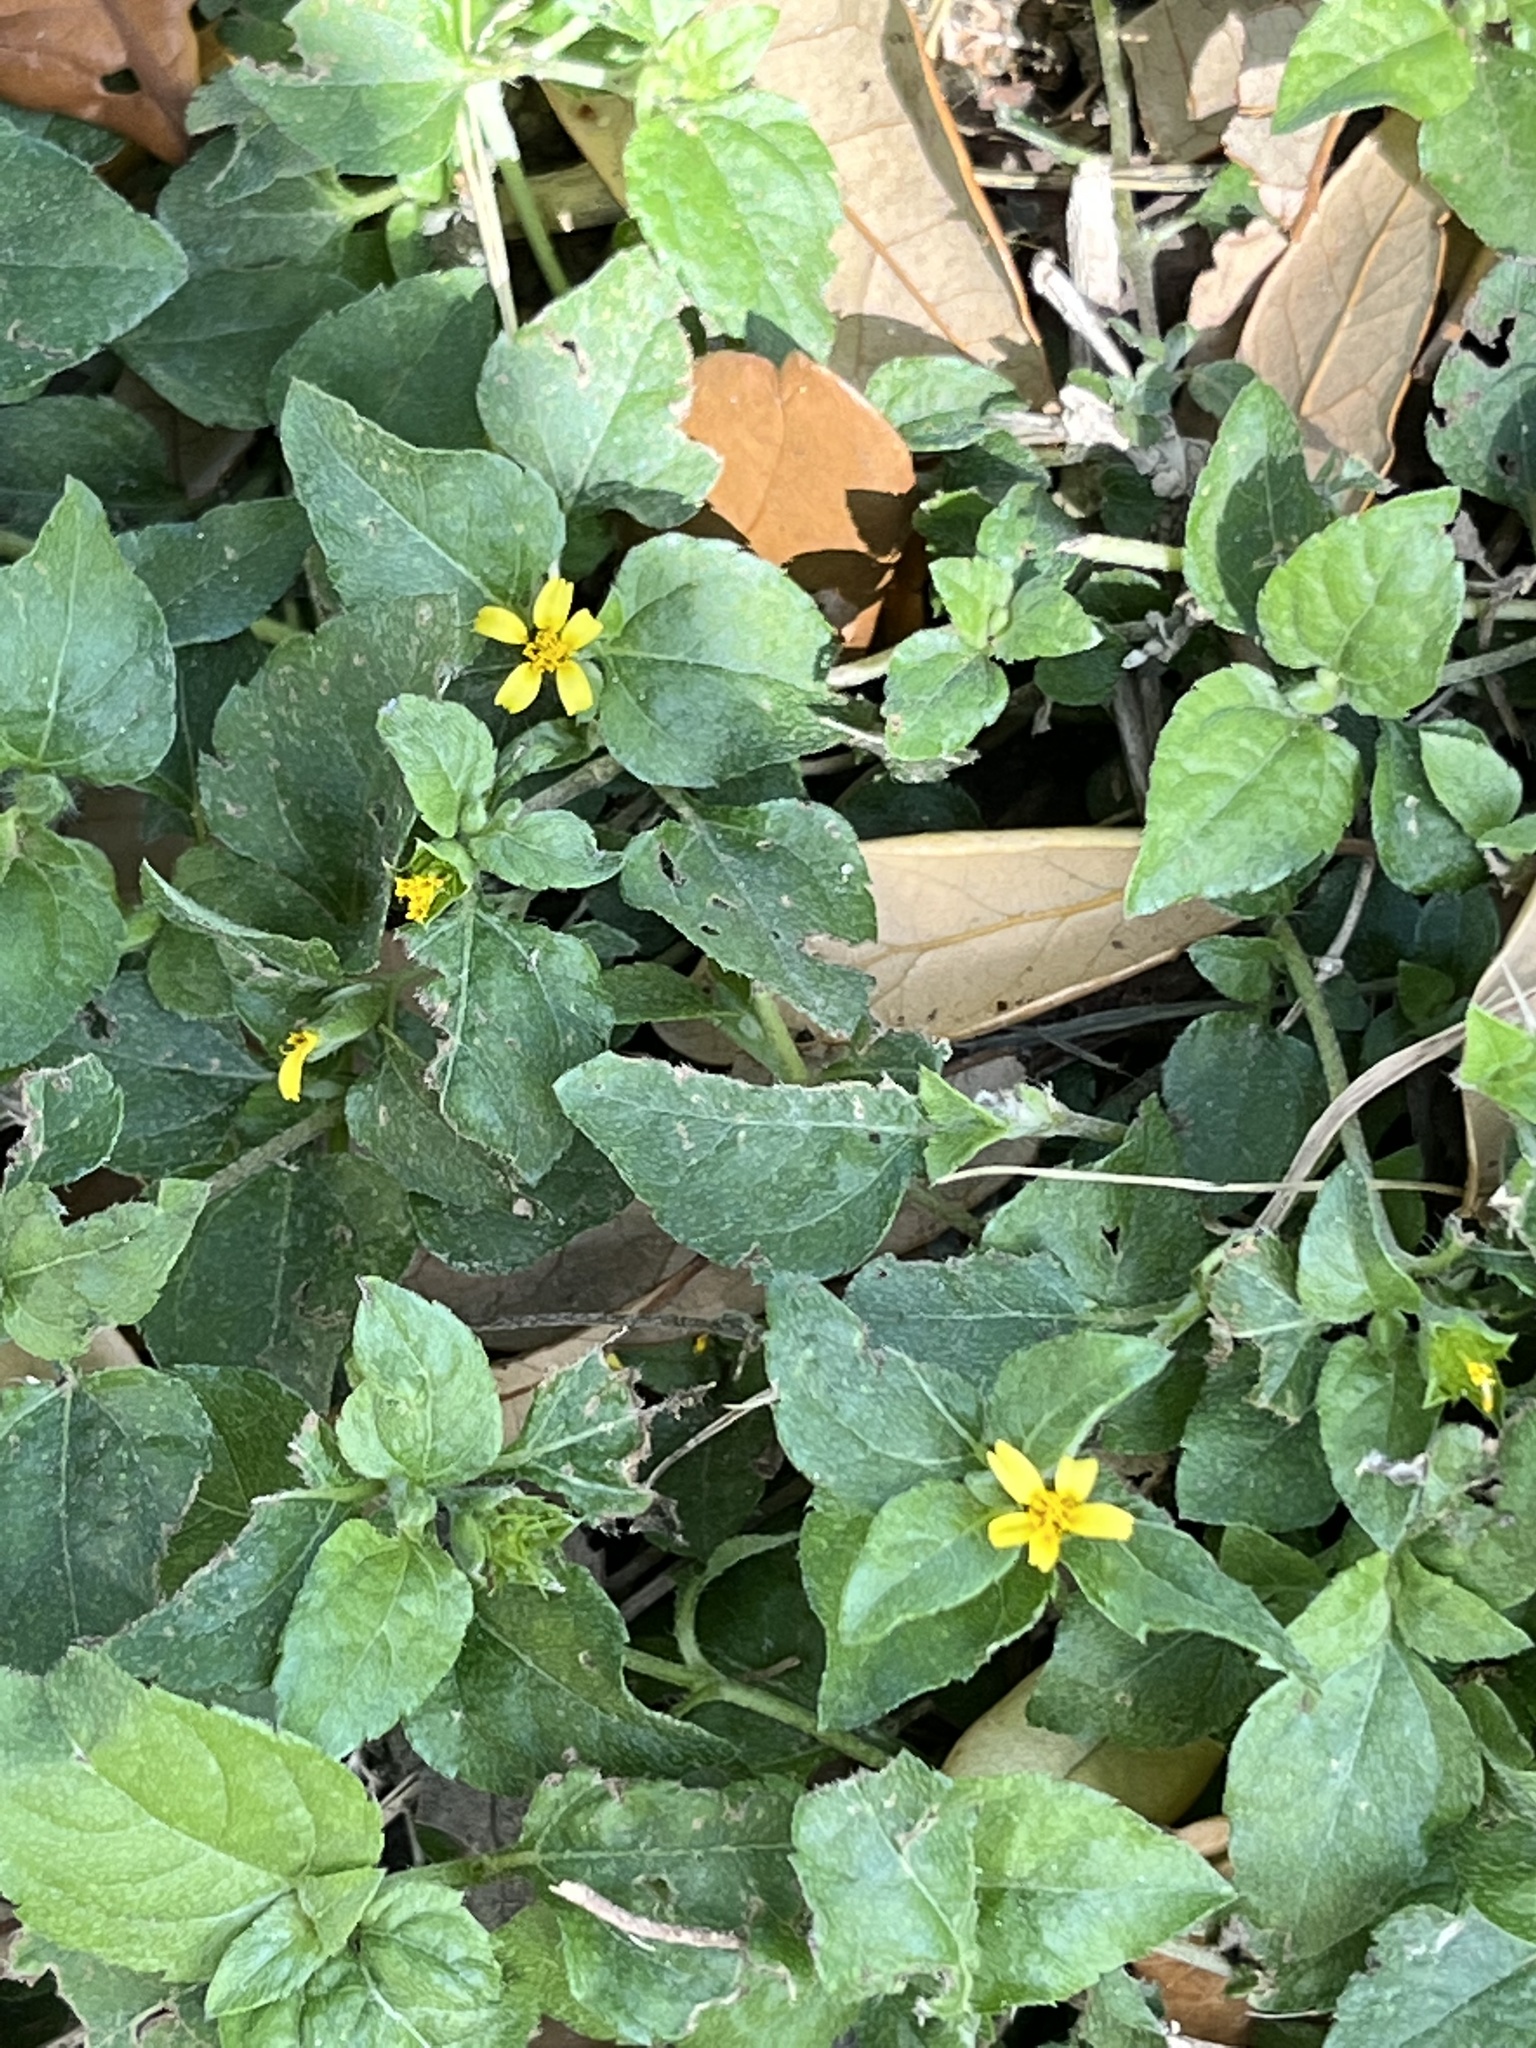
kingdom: Plantae
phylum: Tracheophyta
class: Magnoliopsida
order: Asterales
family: Asteraceae
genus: Calyptocarpus
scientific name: Calyptocarpus vialis
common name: Straggler daisy
